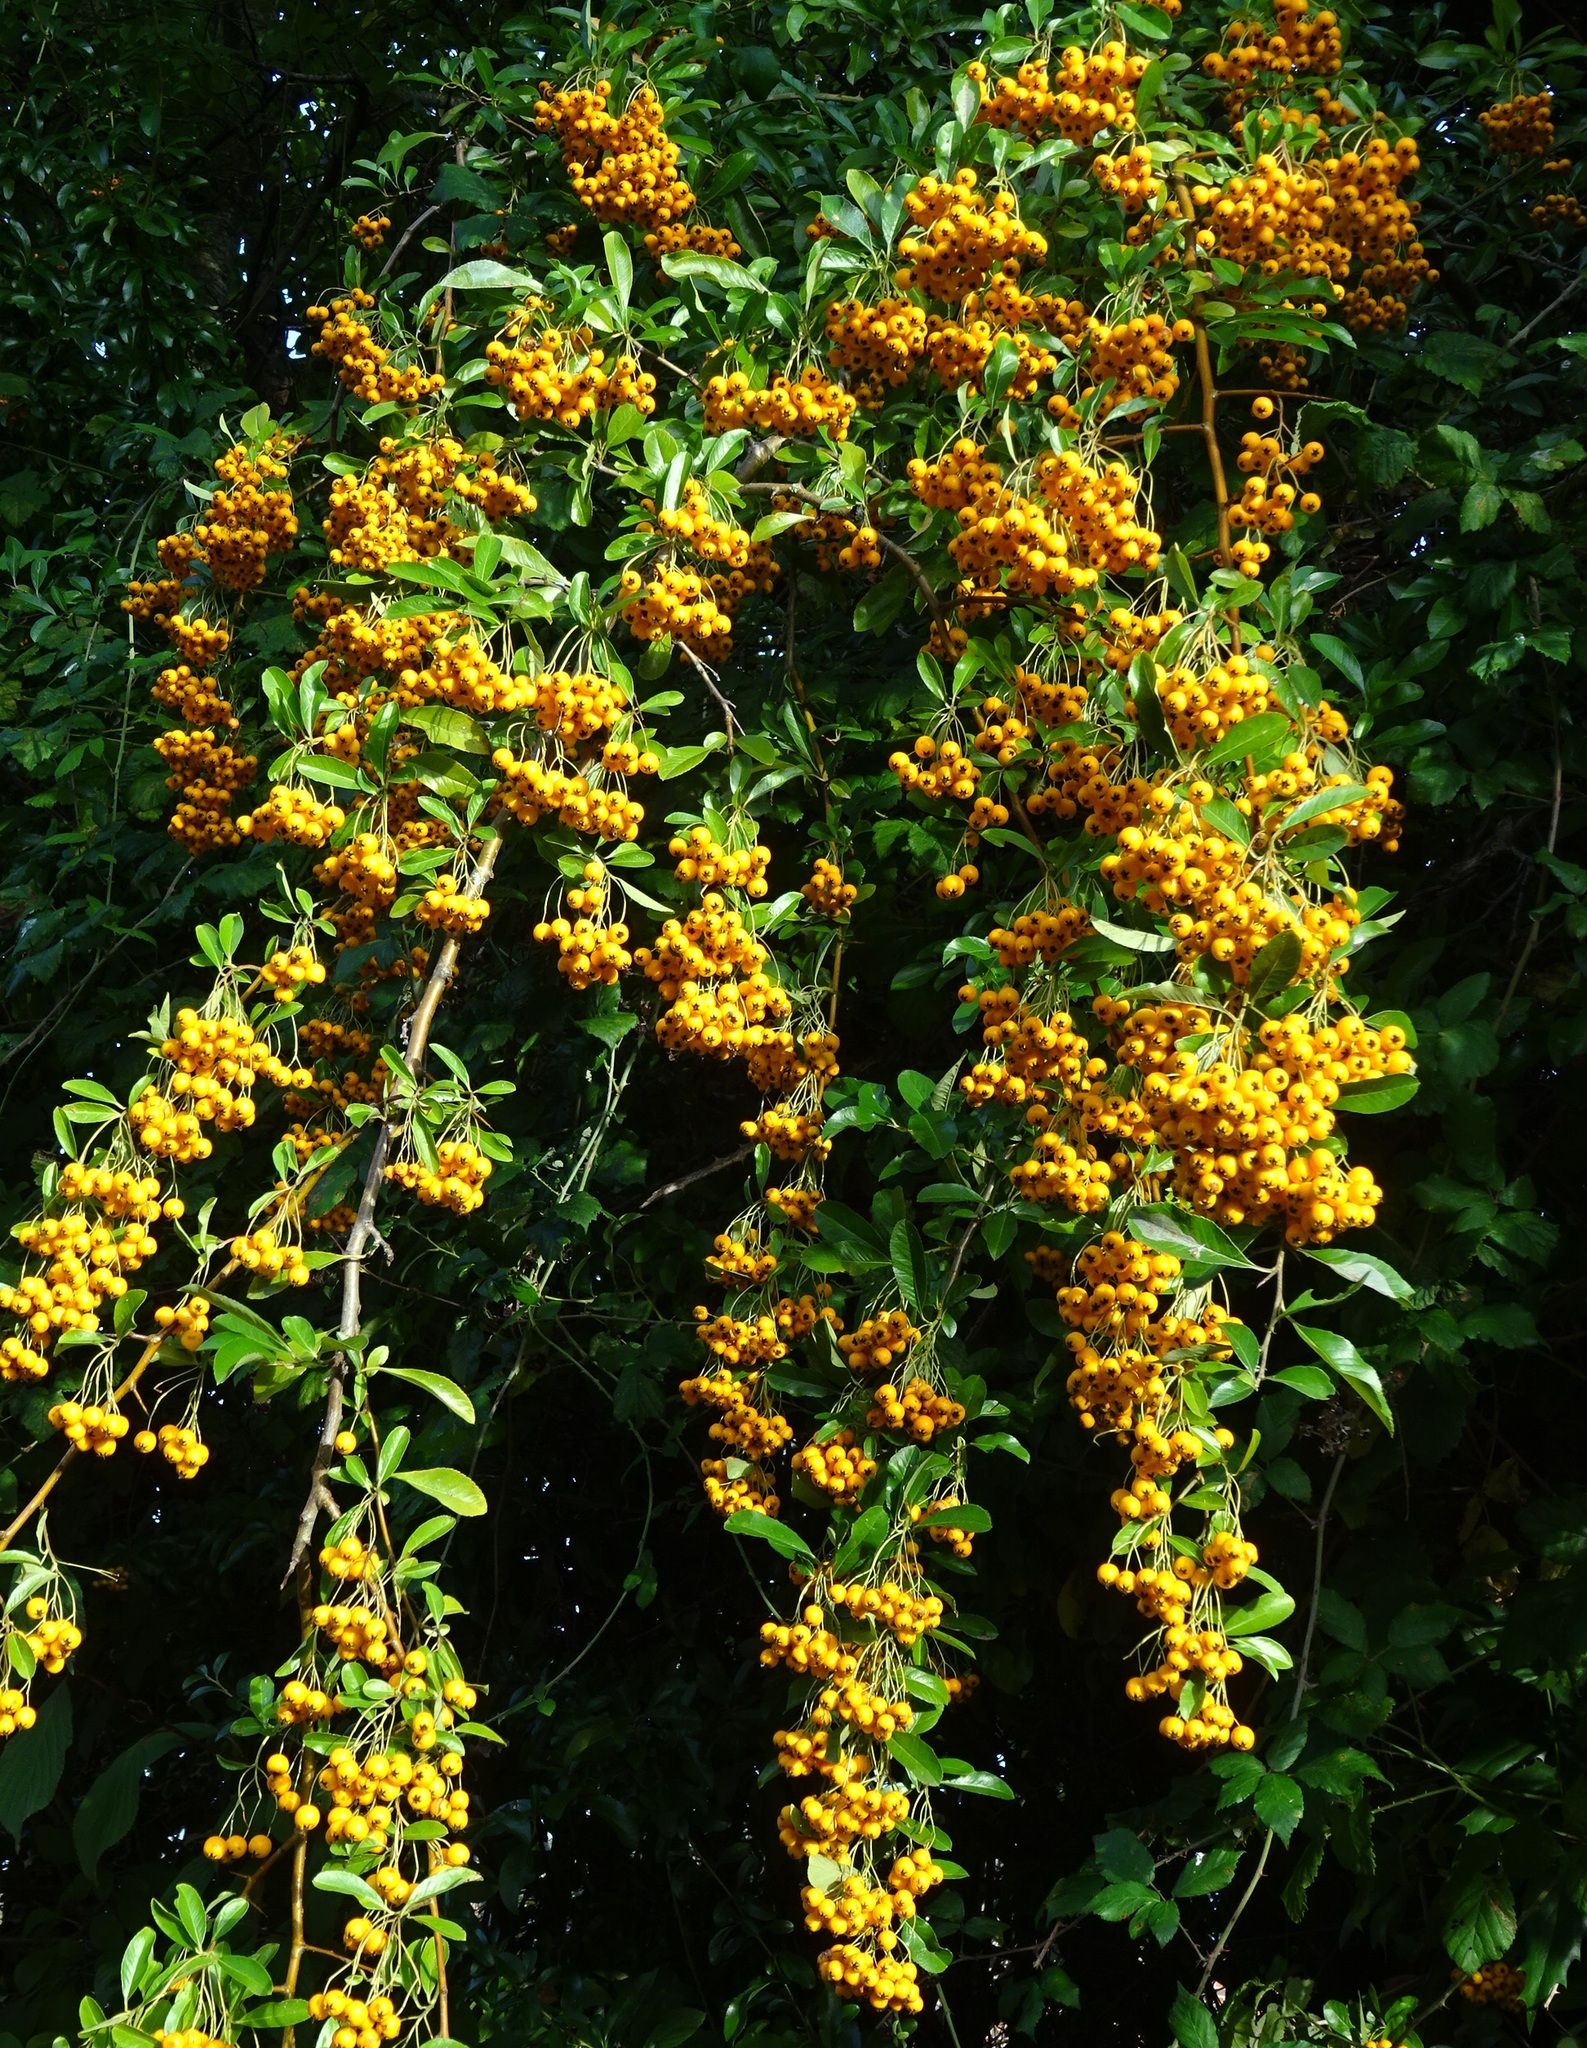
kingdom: Plantae
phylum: Tracheophyta
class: Magnoliopsida
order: Rosales
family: Rosaceae
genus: Pyracantha
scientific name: Pyracantha coccinea
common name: Firethorn
